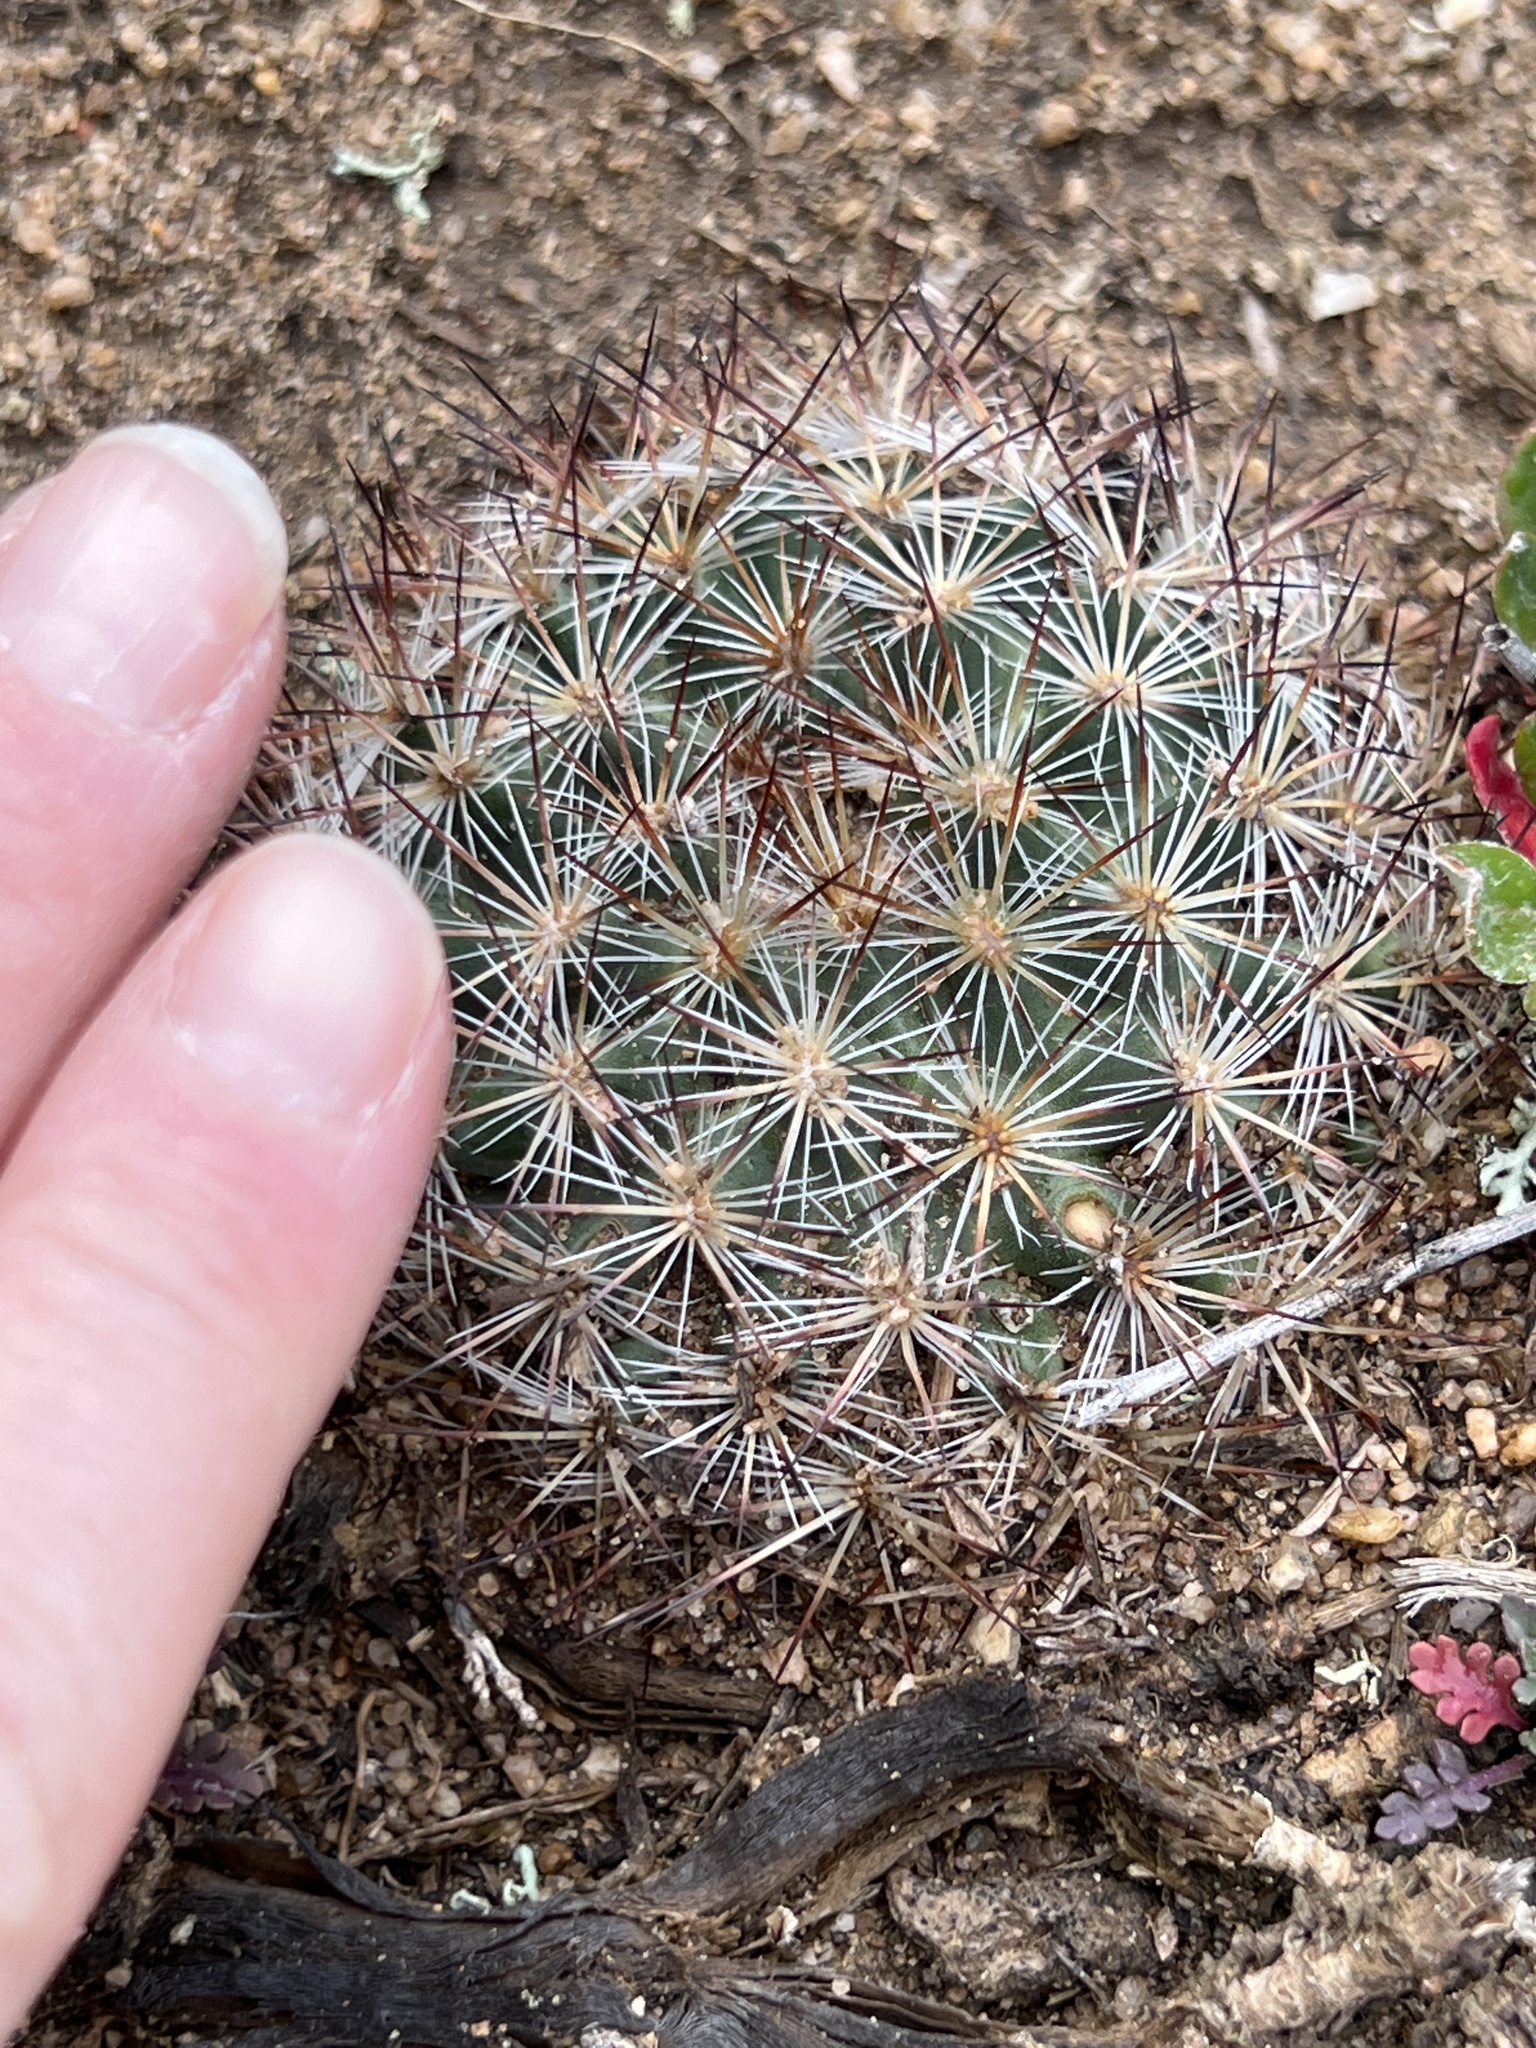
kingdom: Plantae
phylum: Tracheophyta
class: Magnoliopsida
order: Caryophyllales
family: Cactaceae
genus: Pediocactus
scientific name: Pediocactus simpsonii
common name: Simpson's hedgehog cactus
